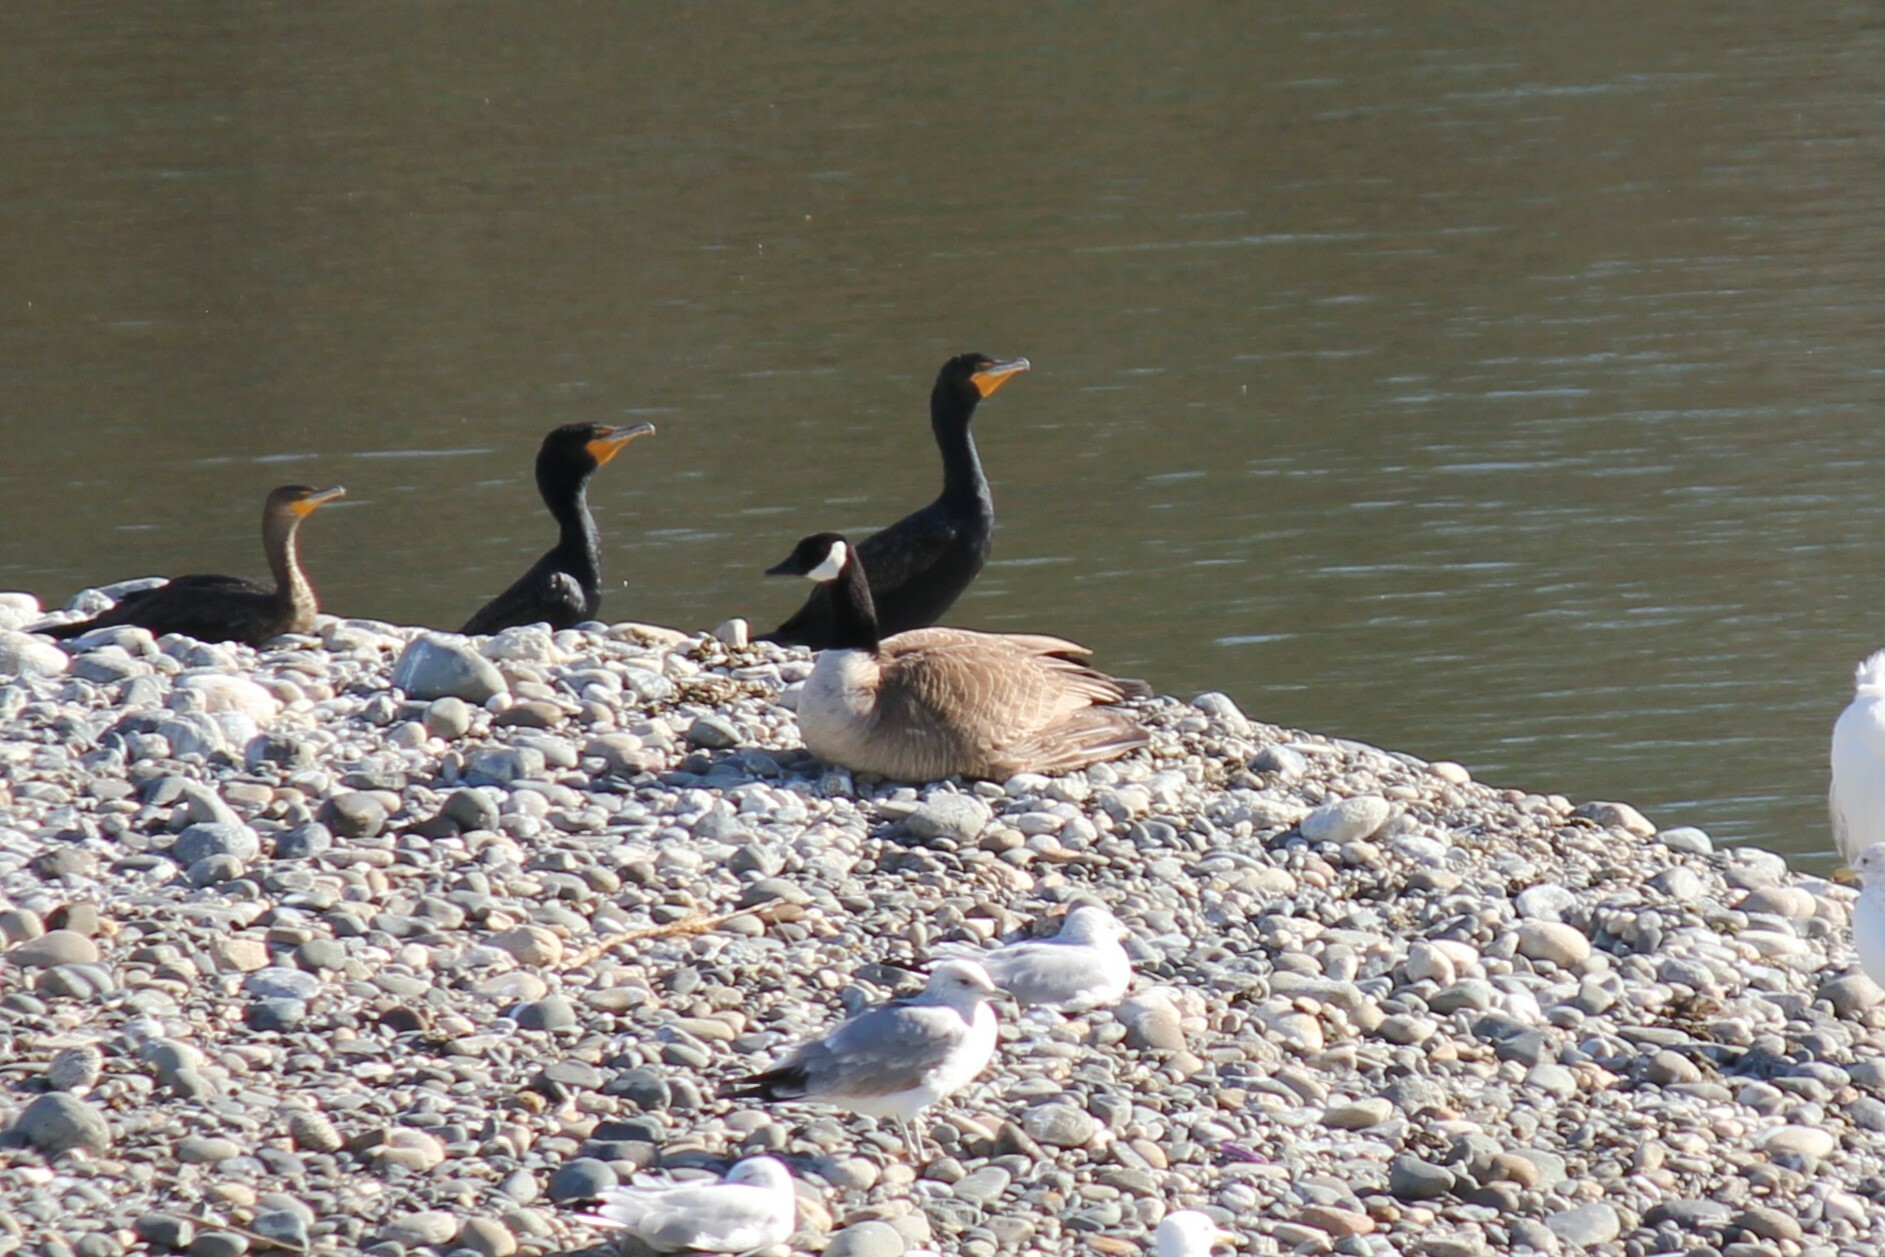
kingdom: Animalia
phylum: Chordata
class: Aves
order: Anseriformes
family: Anatidae
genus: Branta
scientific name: Branta canadensis
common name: Canada goose
